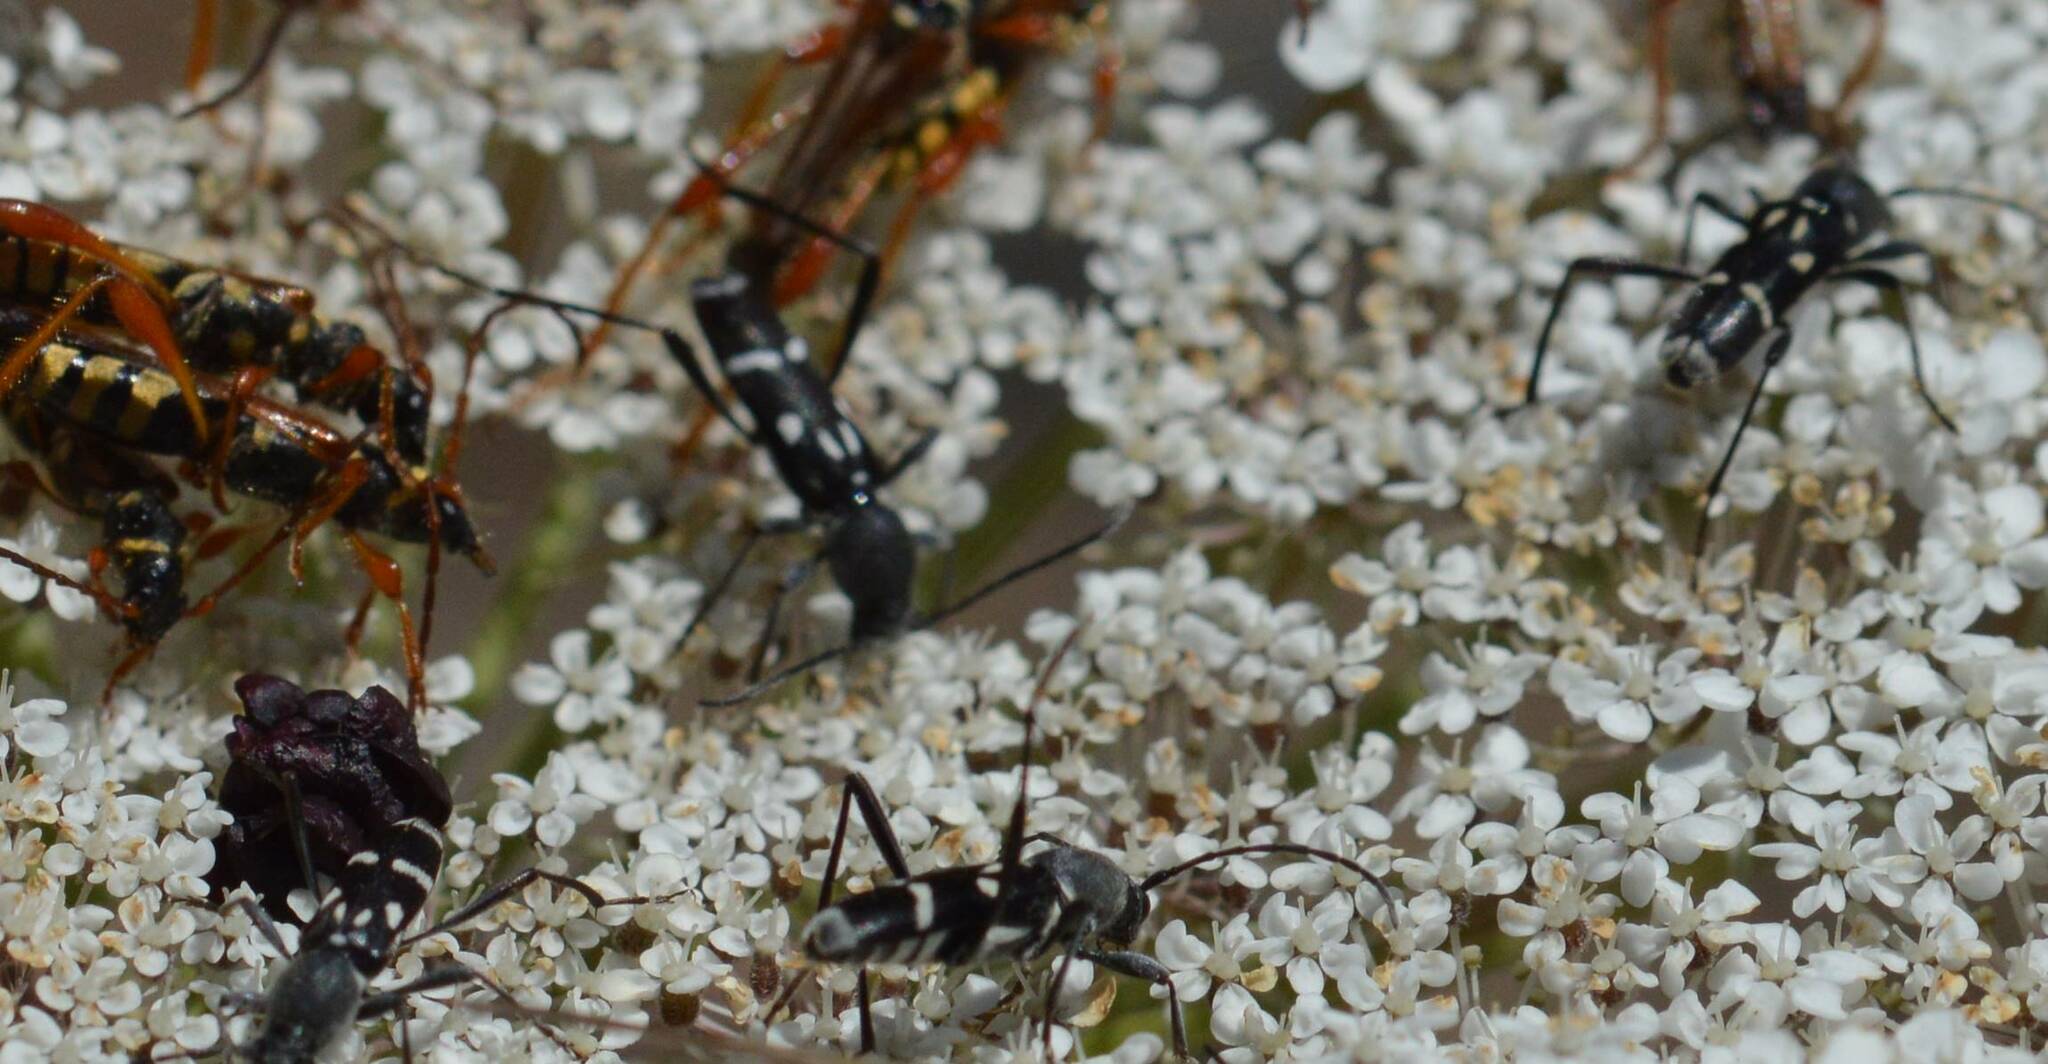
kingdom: Animalia
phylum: Arthropoda
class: Insecta
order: Coleoptera
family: Cerambycidae
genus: Chlorophorus
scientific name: Chlorophorus pelleteri
